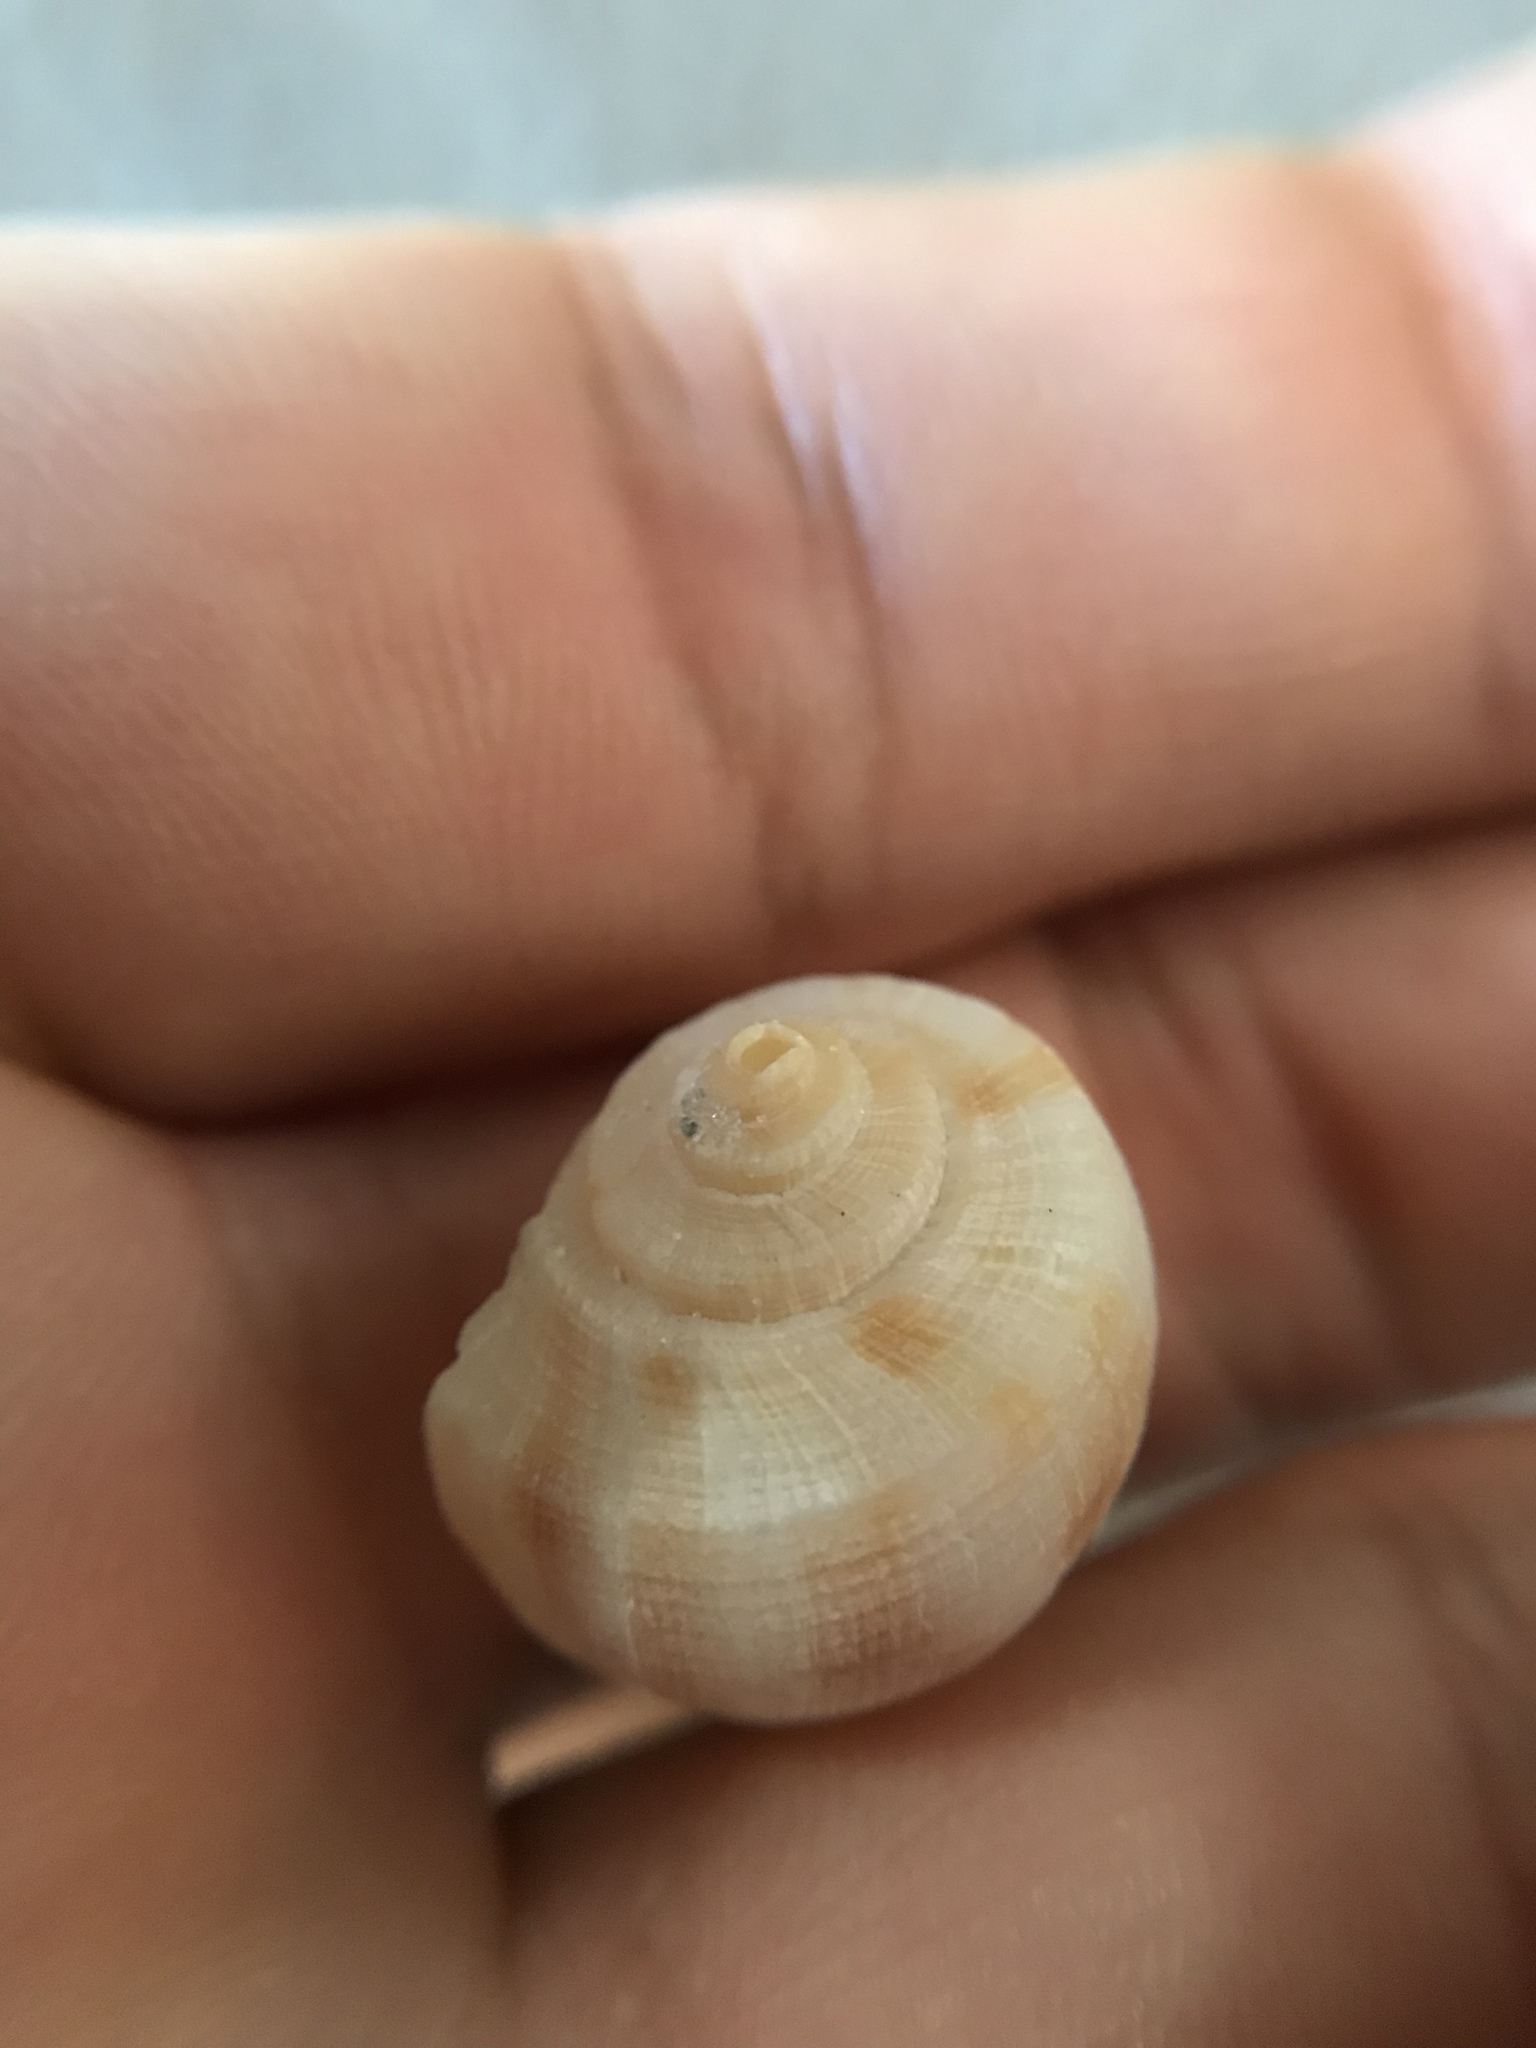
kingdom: Animalia
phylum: Mollusca
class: Gastropoda
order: Neogastropoda
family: Busyconidae
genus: Fulguropsis
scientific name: Fulguropsis pyruloides
